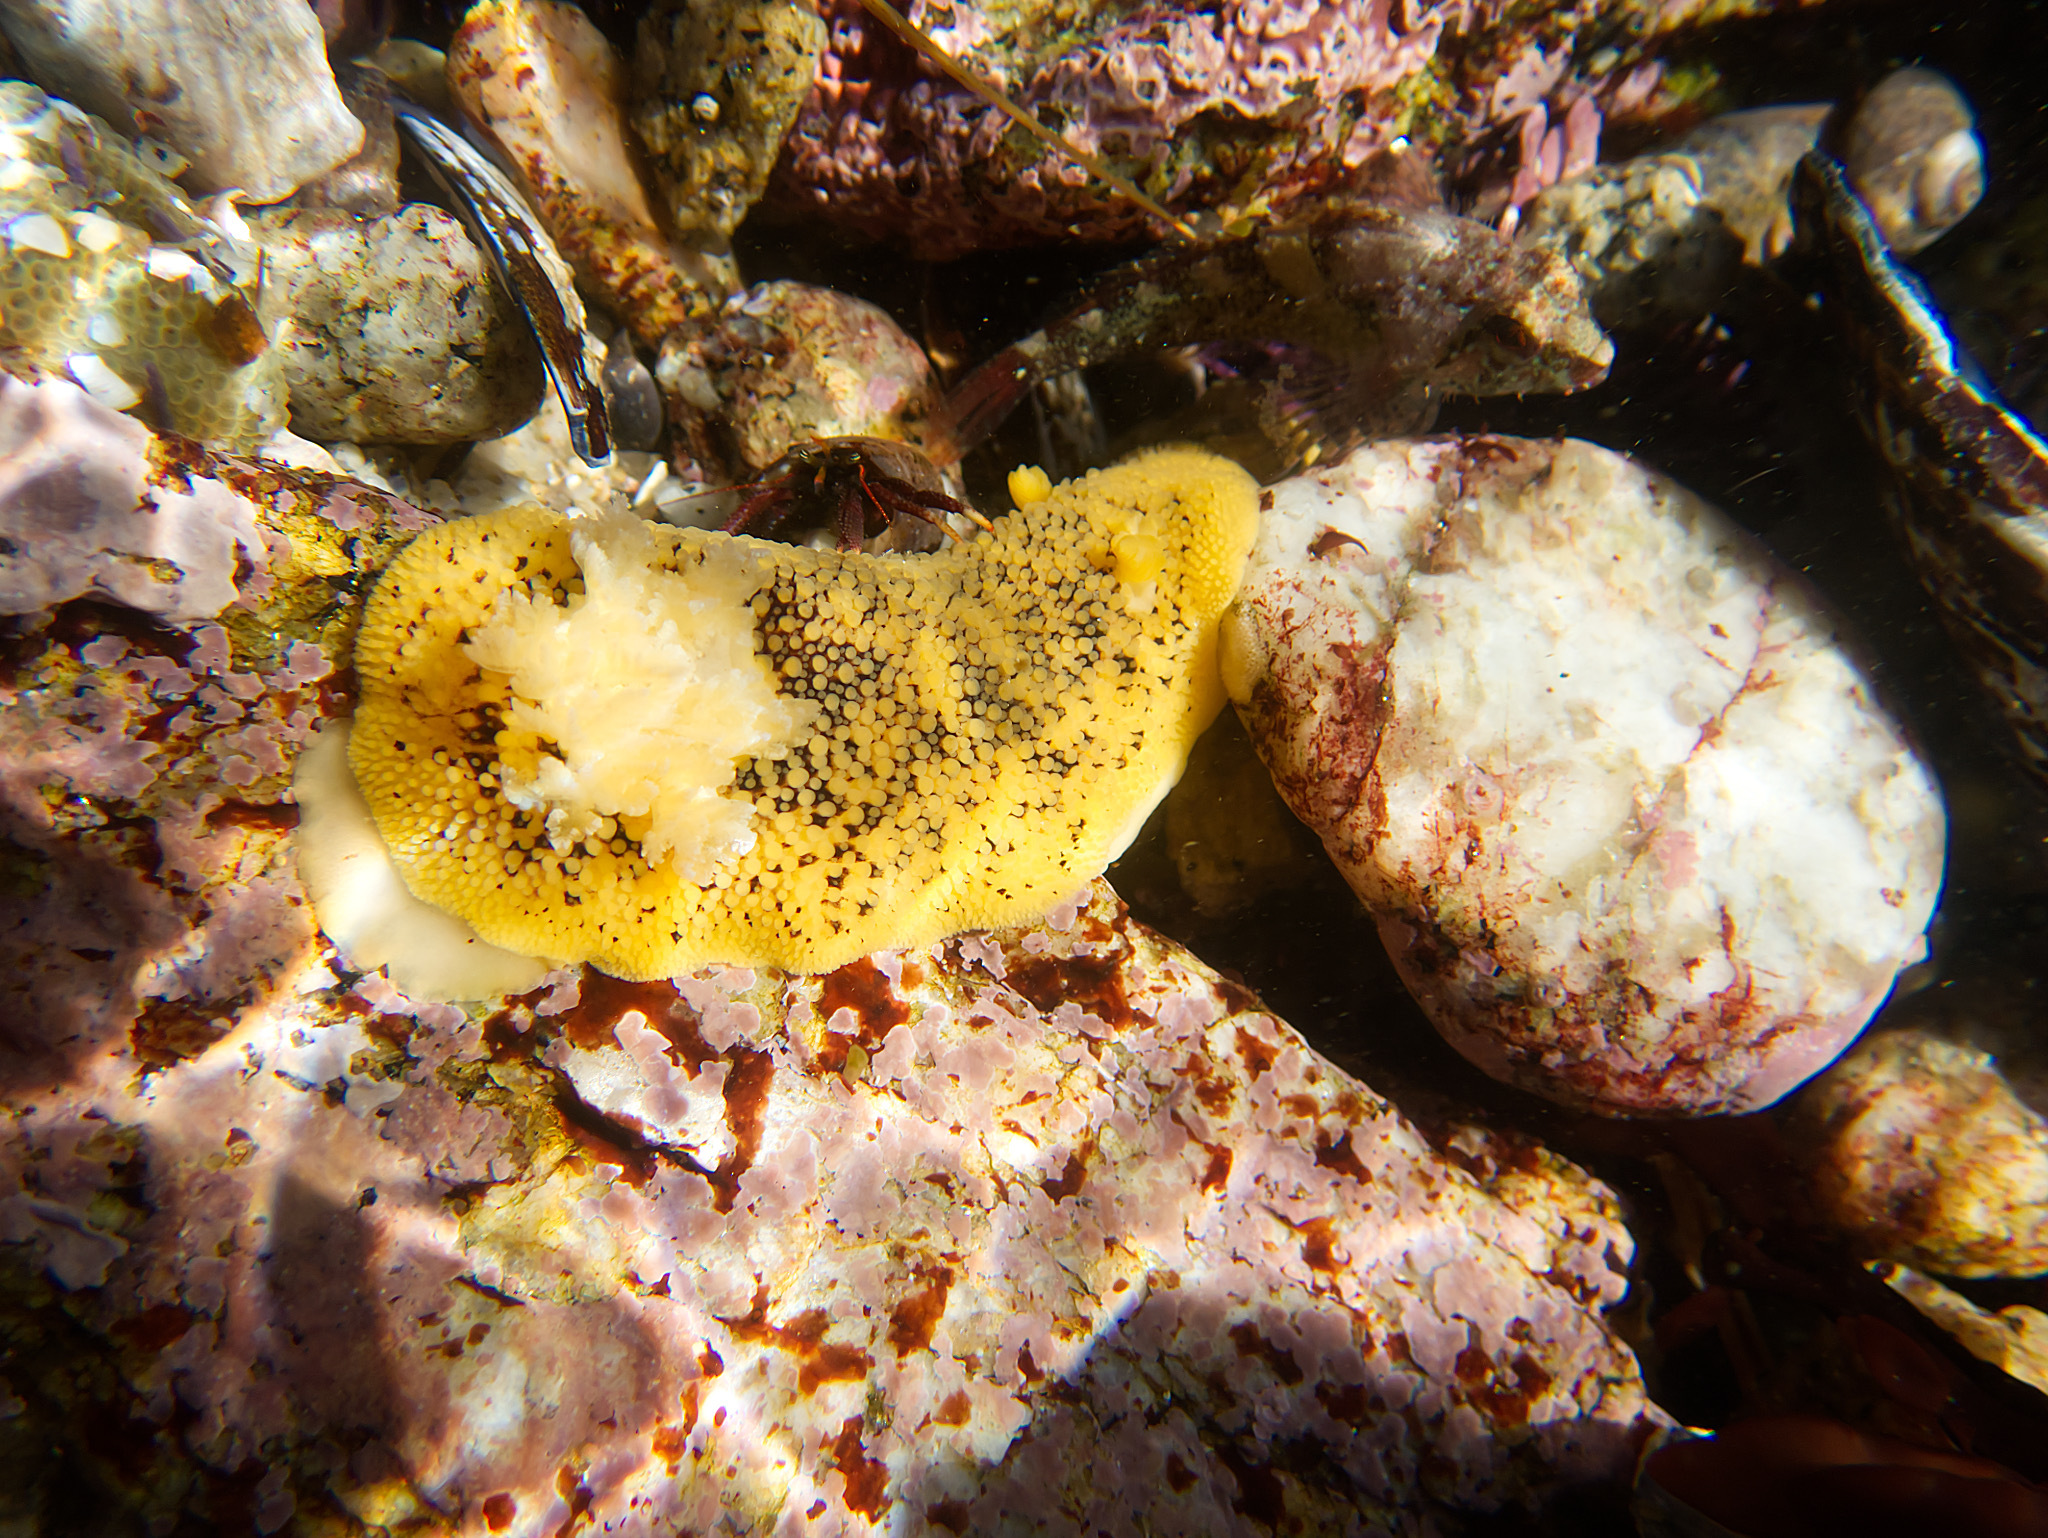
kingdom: Animalia
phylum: Mollusca
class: Gastropoda
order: Nudibranchia
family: Discodorididae
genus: Peltodoris
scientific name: Peltodoris nobilis
